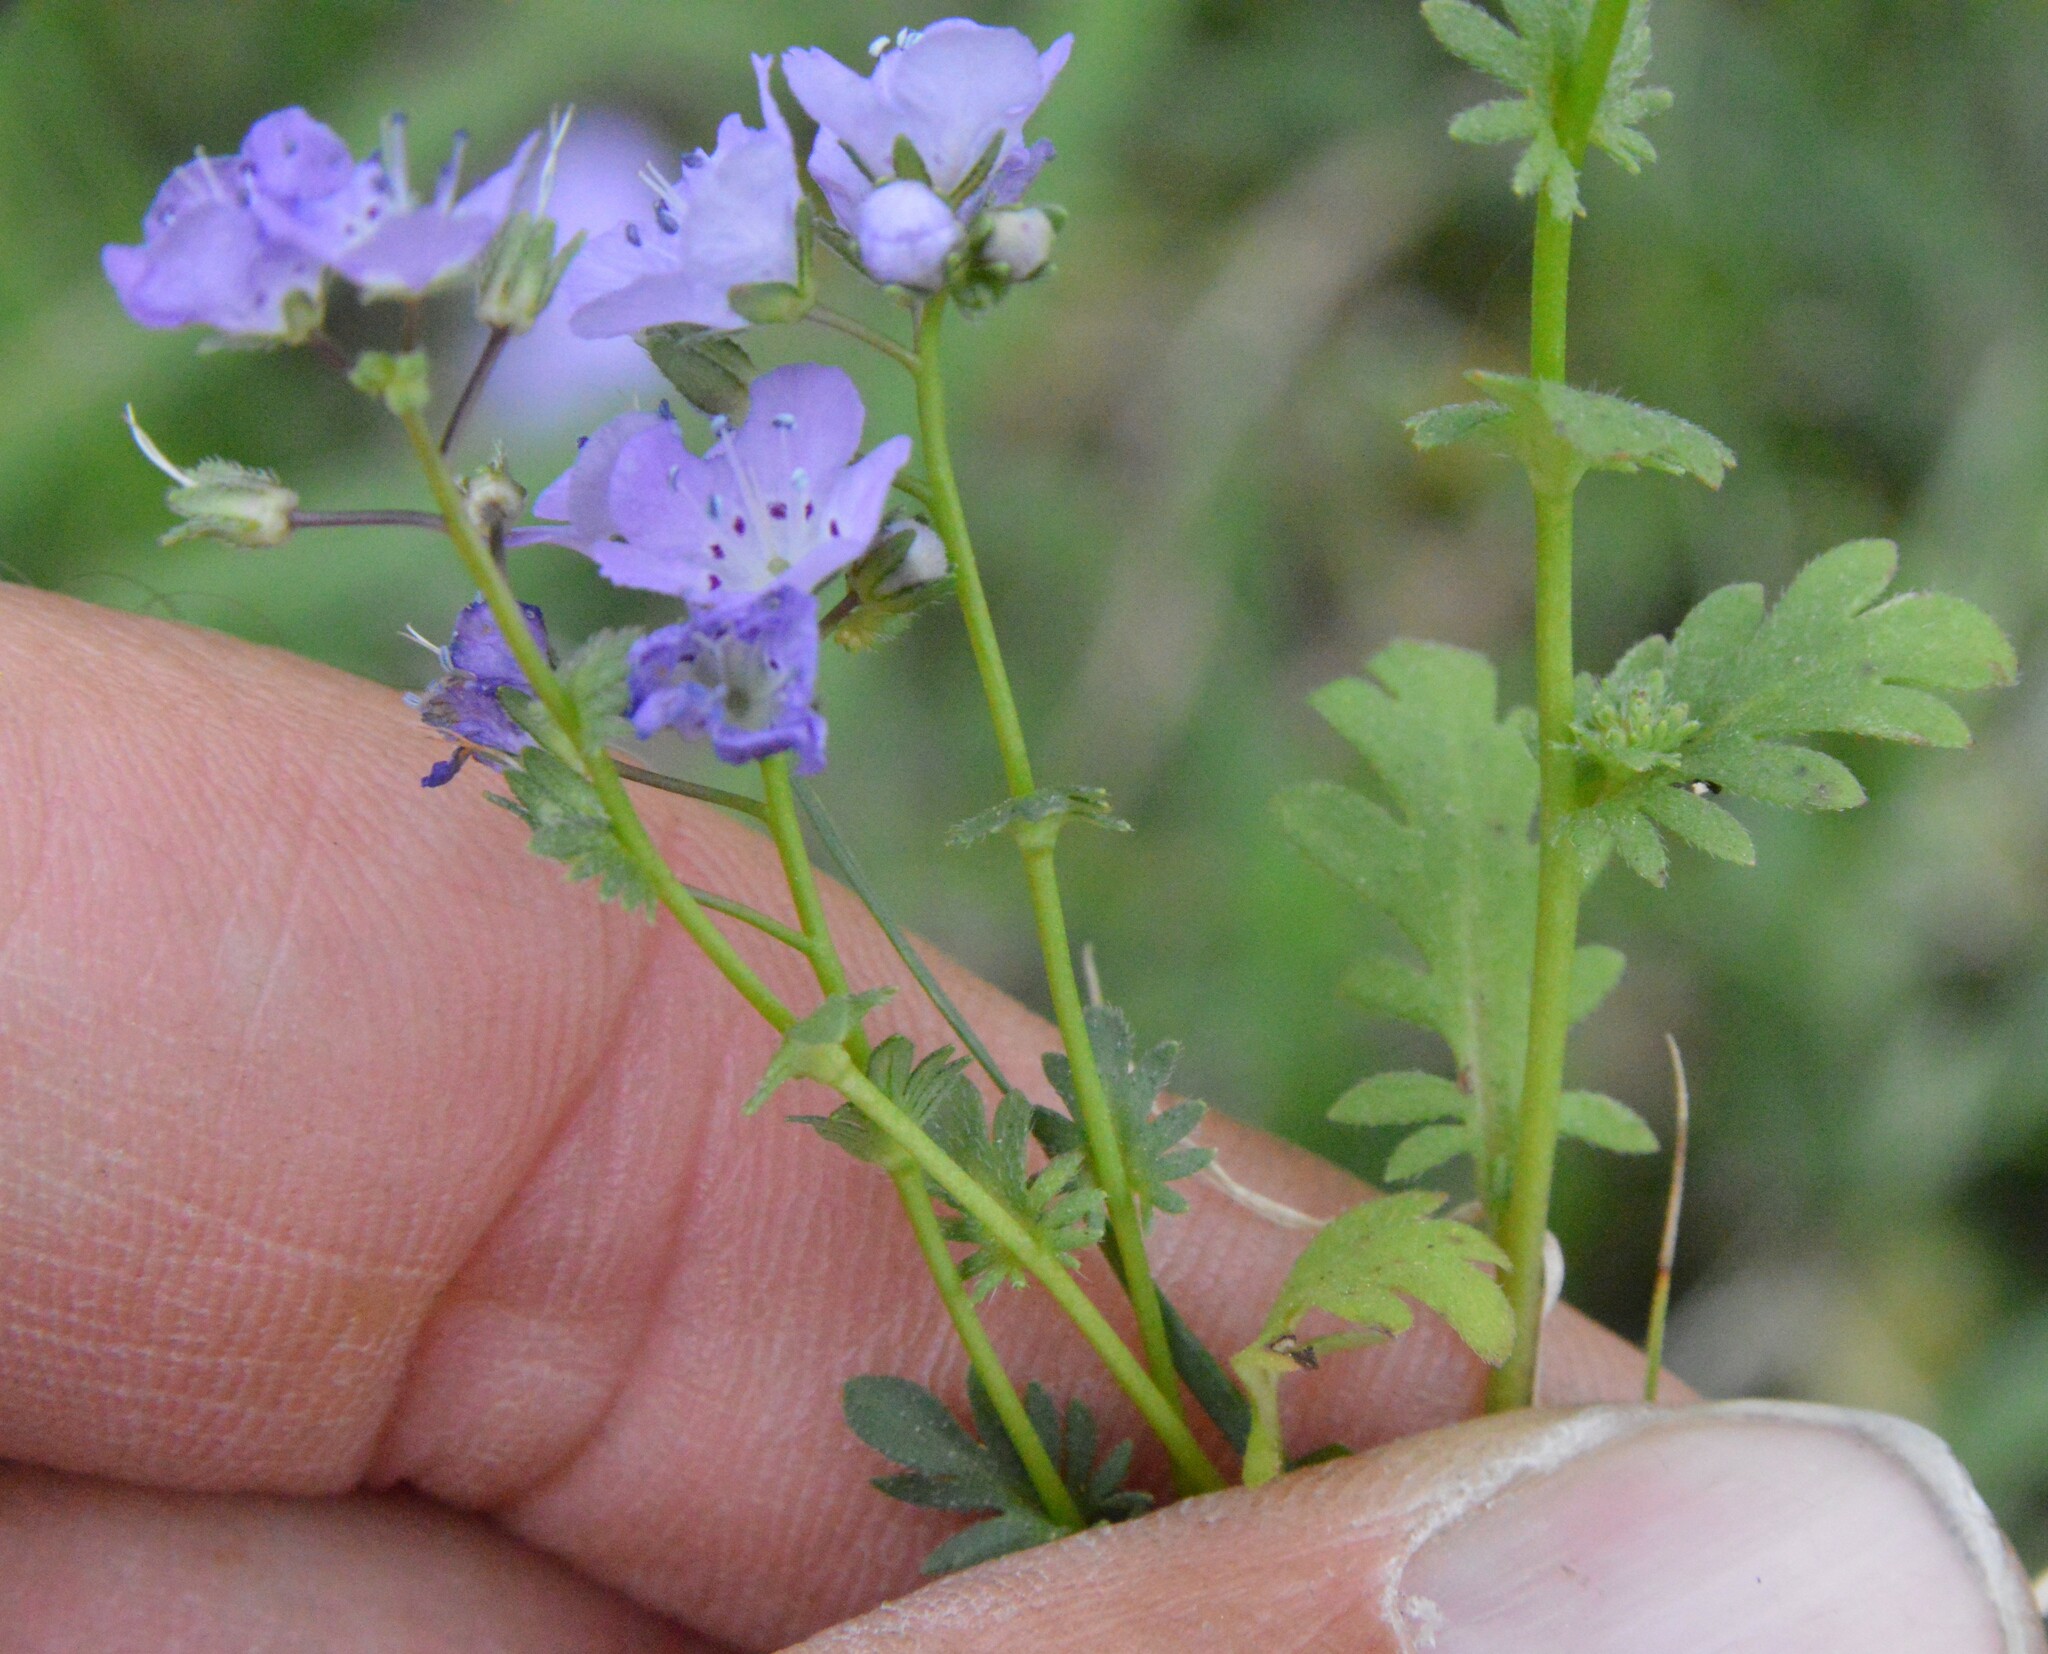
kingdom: Plantae
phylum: Tracheophyta
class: Magnoliopsida
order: Boraginales
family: Hydrophyllaceae
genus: Phacelia
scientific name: Phacelia glabra
